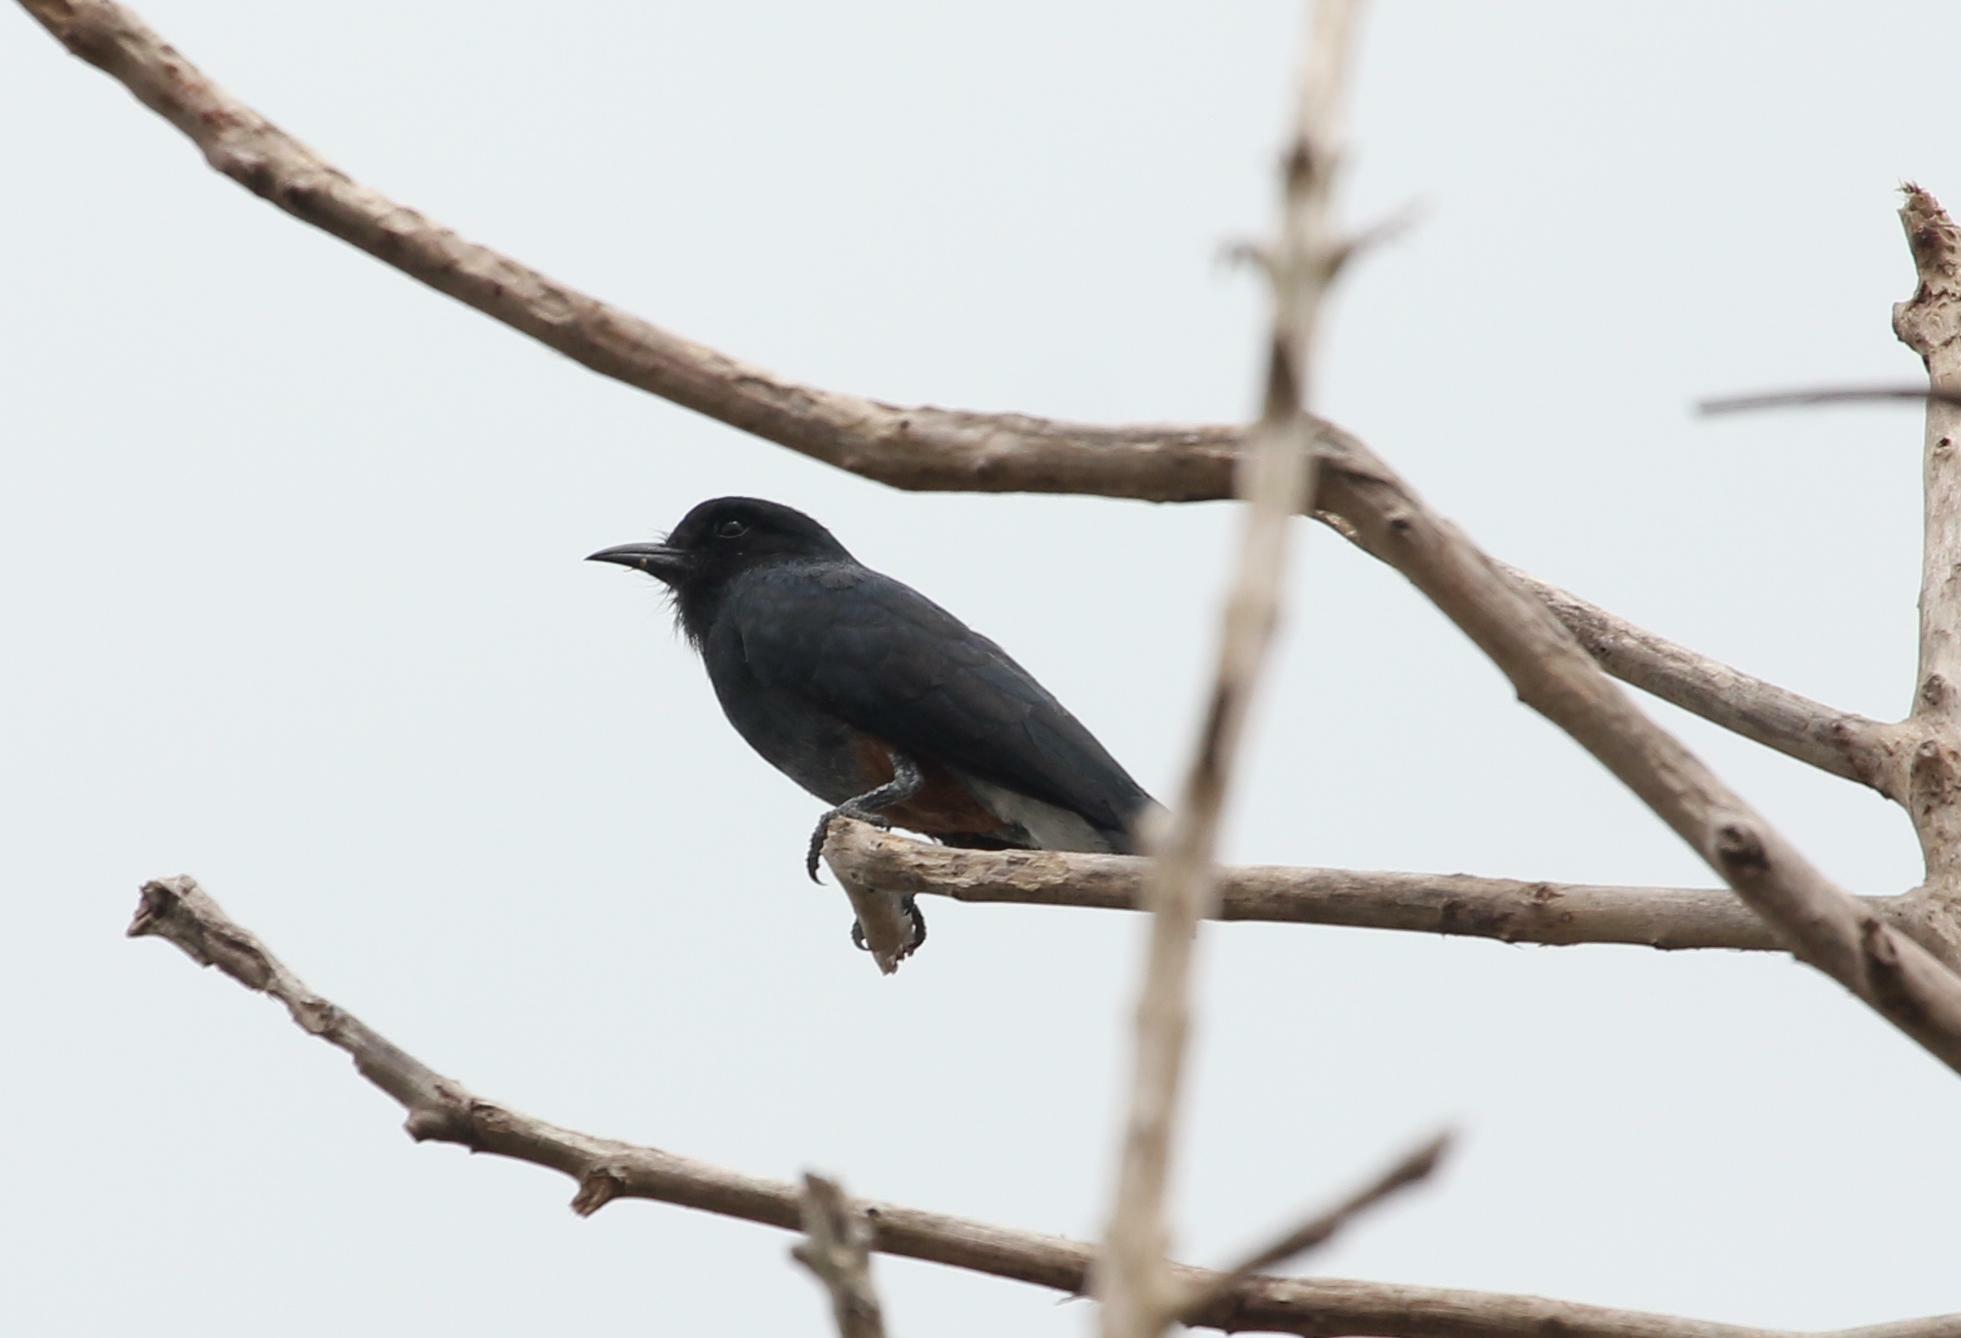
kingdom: Animalia
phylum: Chordata
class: Aves
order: Piciformes
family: Bucconidae
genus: Chelidoptera
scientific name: Chelidoptera tenebrosa
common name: Swallow-winged puffbird
